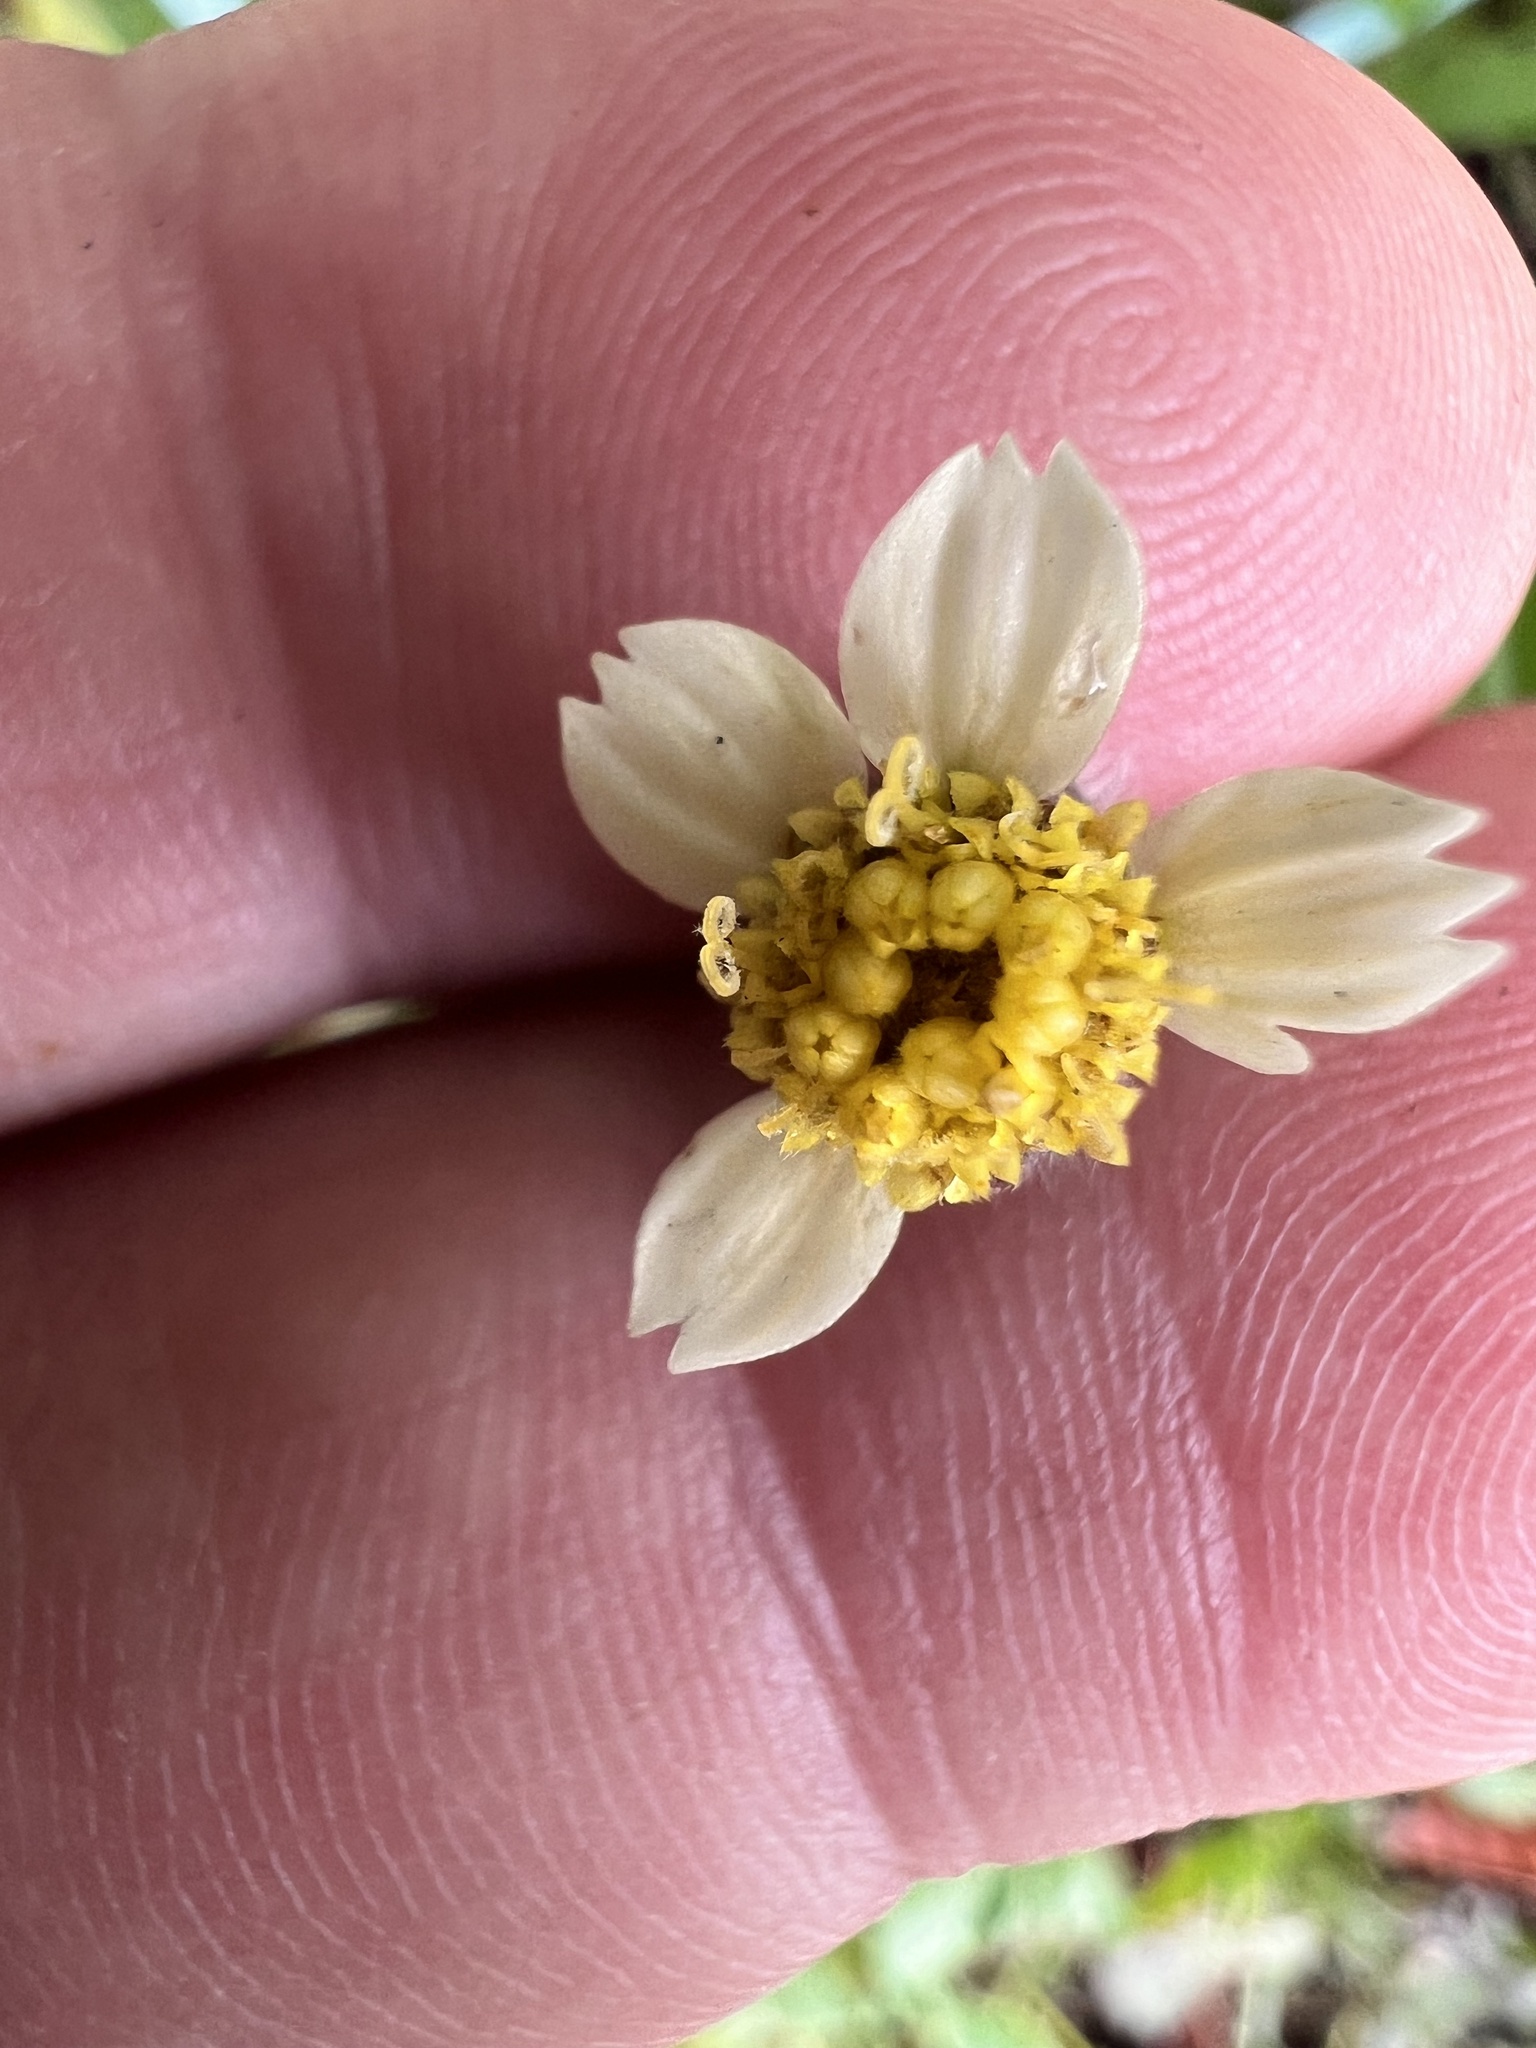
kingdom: Plantae
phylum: Tracheophyta
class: Magnoliopsida
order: Asterales
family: Asteraceae
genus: Tridax
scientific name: Tridax procumbens
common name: Coatbuttons
